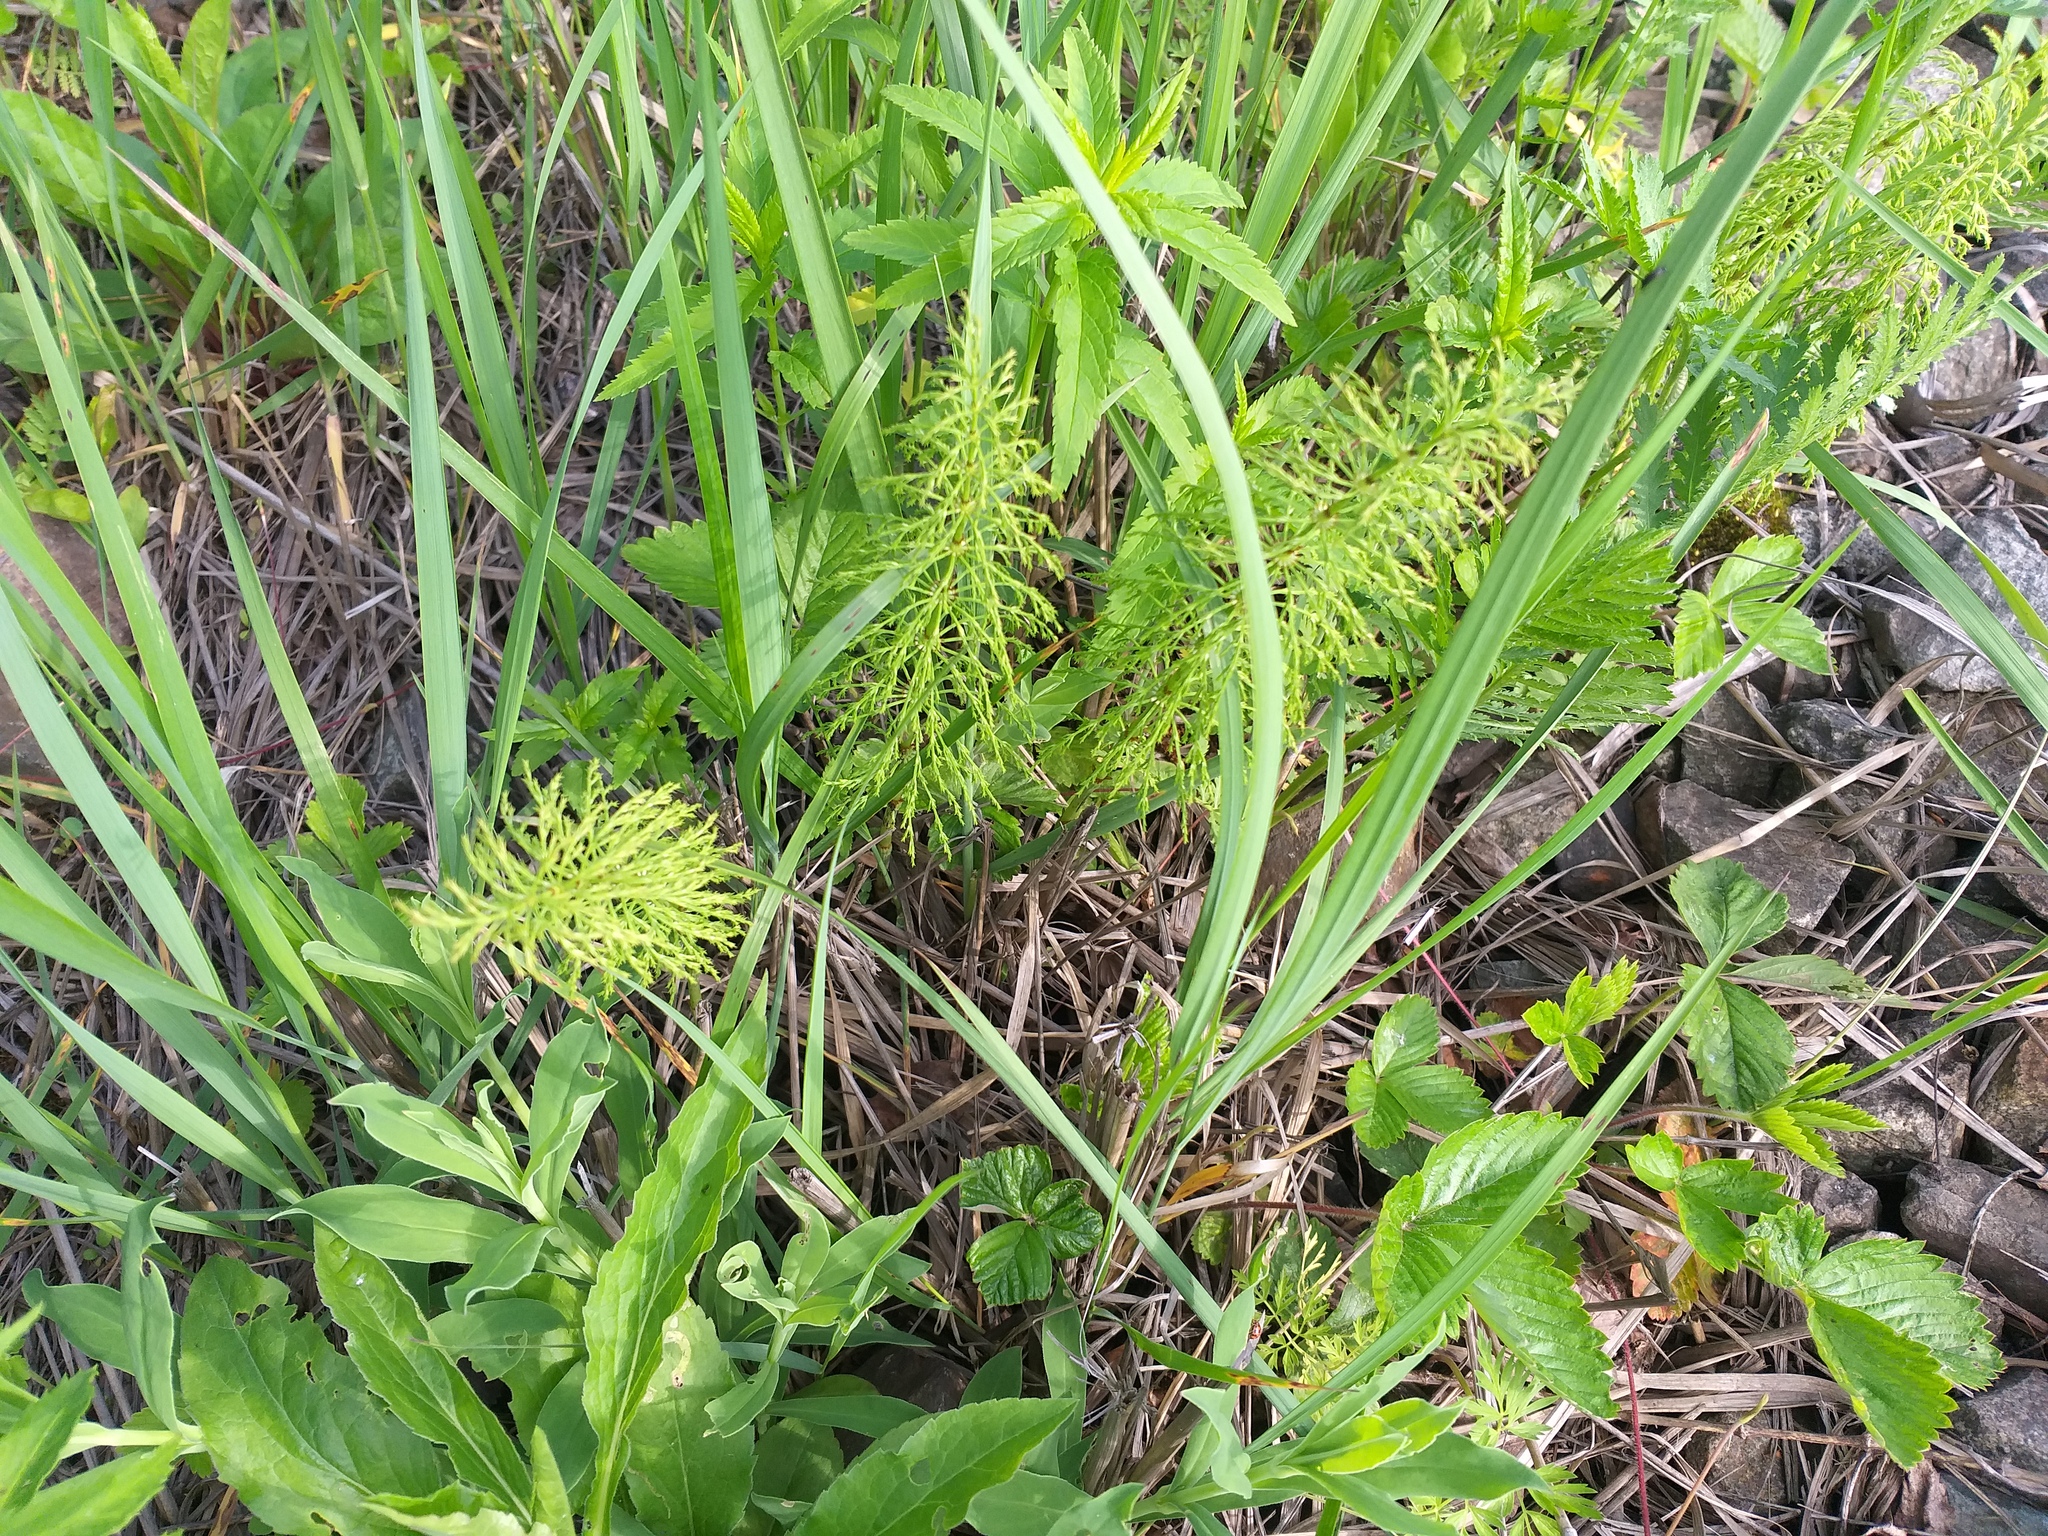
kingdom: Plantae
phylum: Tracheophyta
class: Polypodiopsida
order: Equisetales
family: Equisetaceae
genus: Equisetum
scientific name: Equisetum sylvaticum
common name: Wood horsetail
